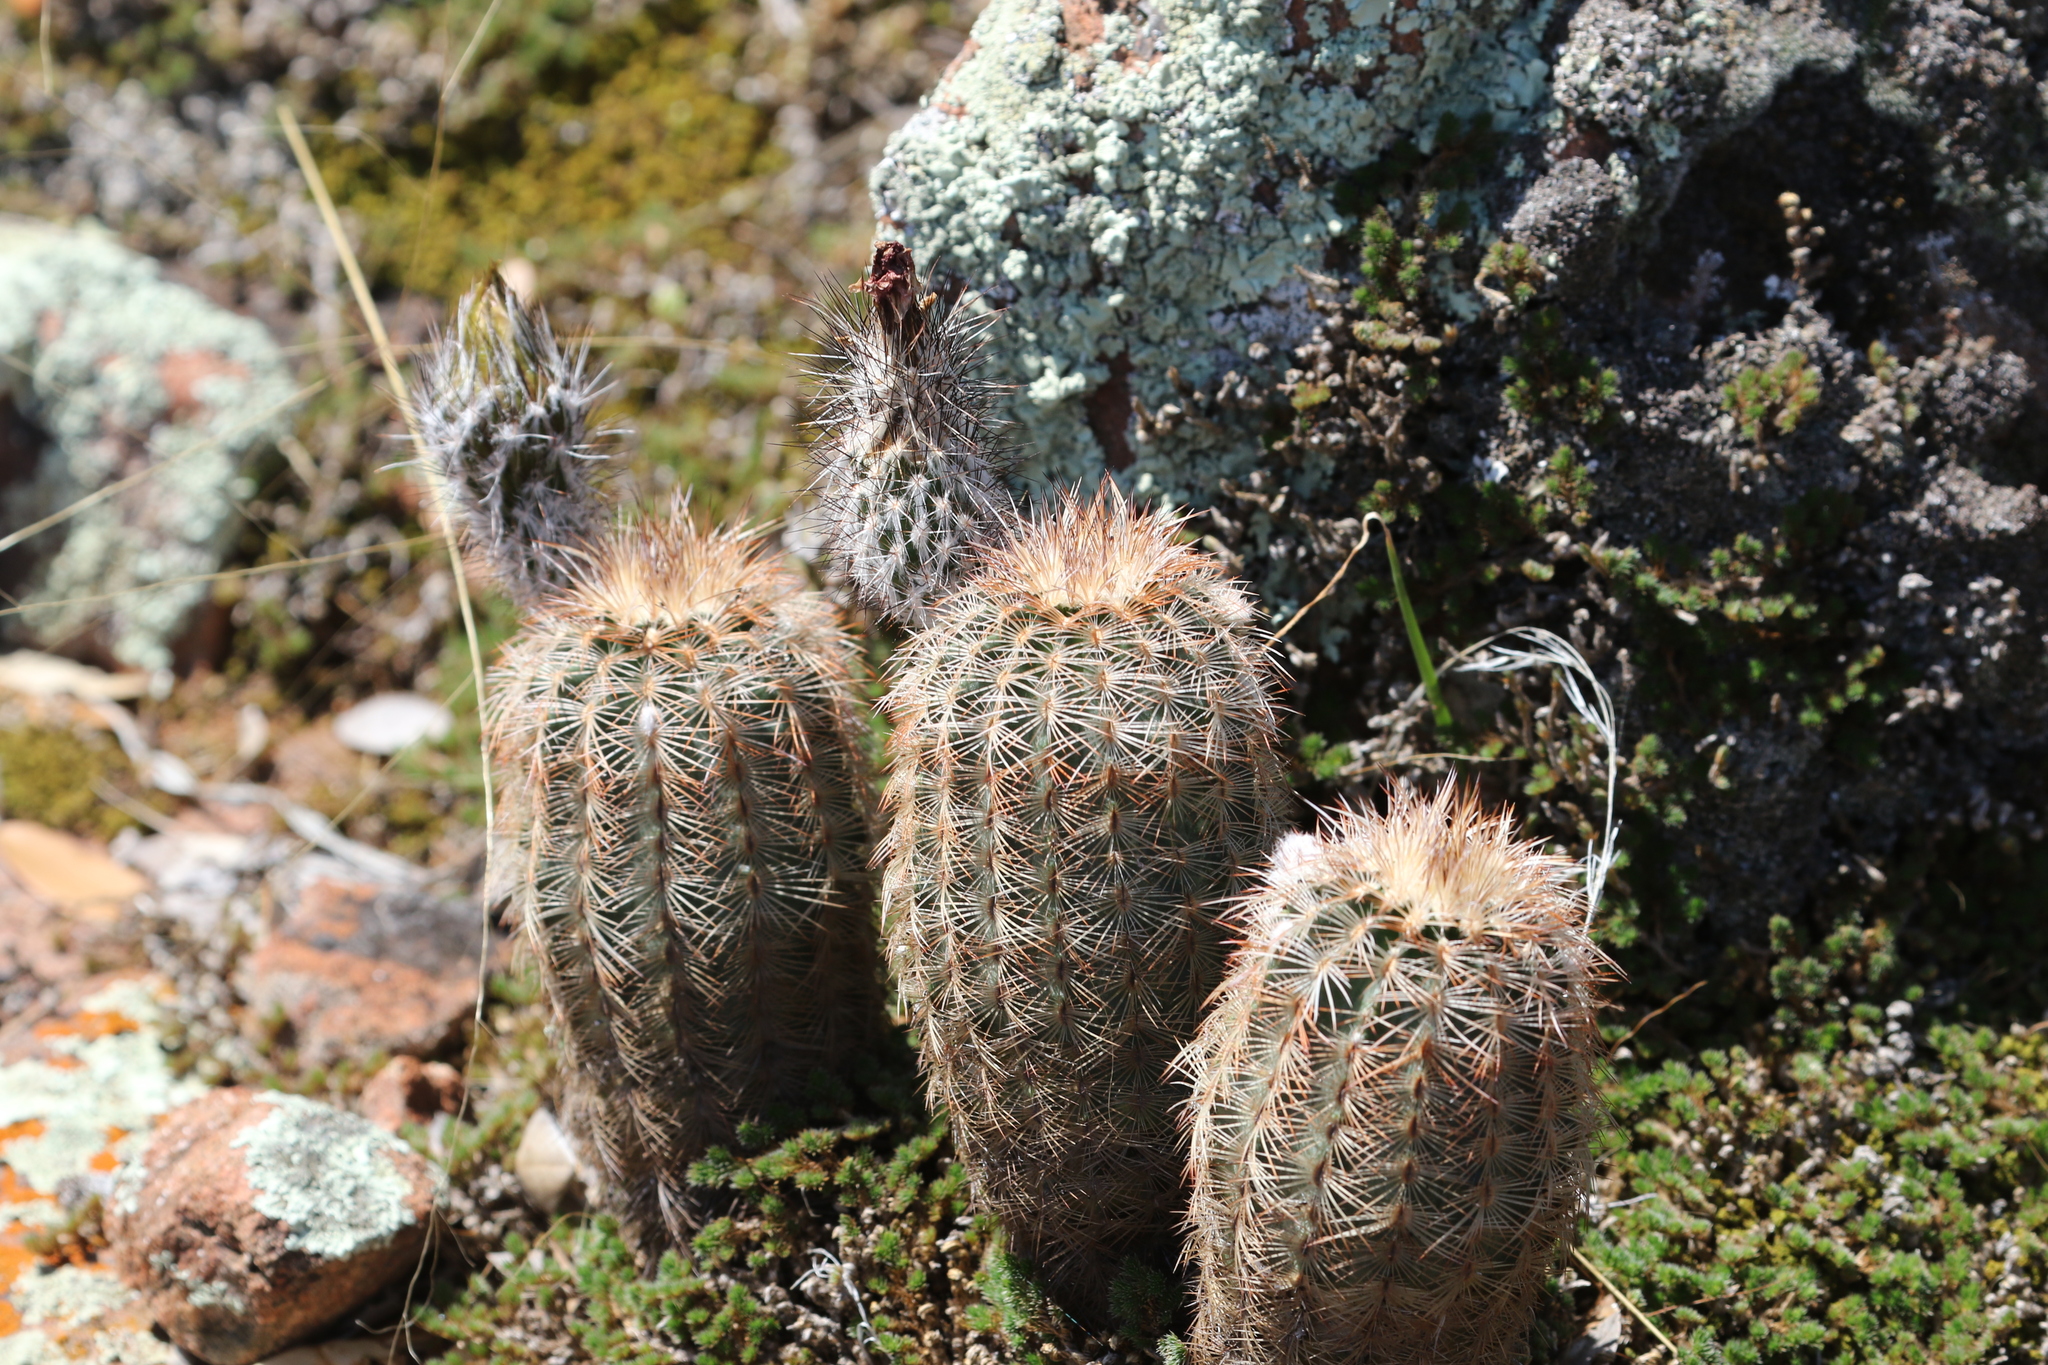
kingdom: Plantae
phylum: Tracheophyta
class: Magnoliopsida
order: Caryophyllales
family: Cactaceae
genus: Echinocereus
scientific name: Echinocereus reichenbachii
